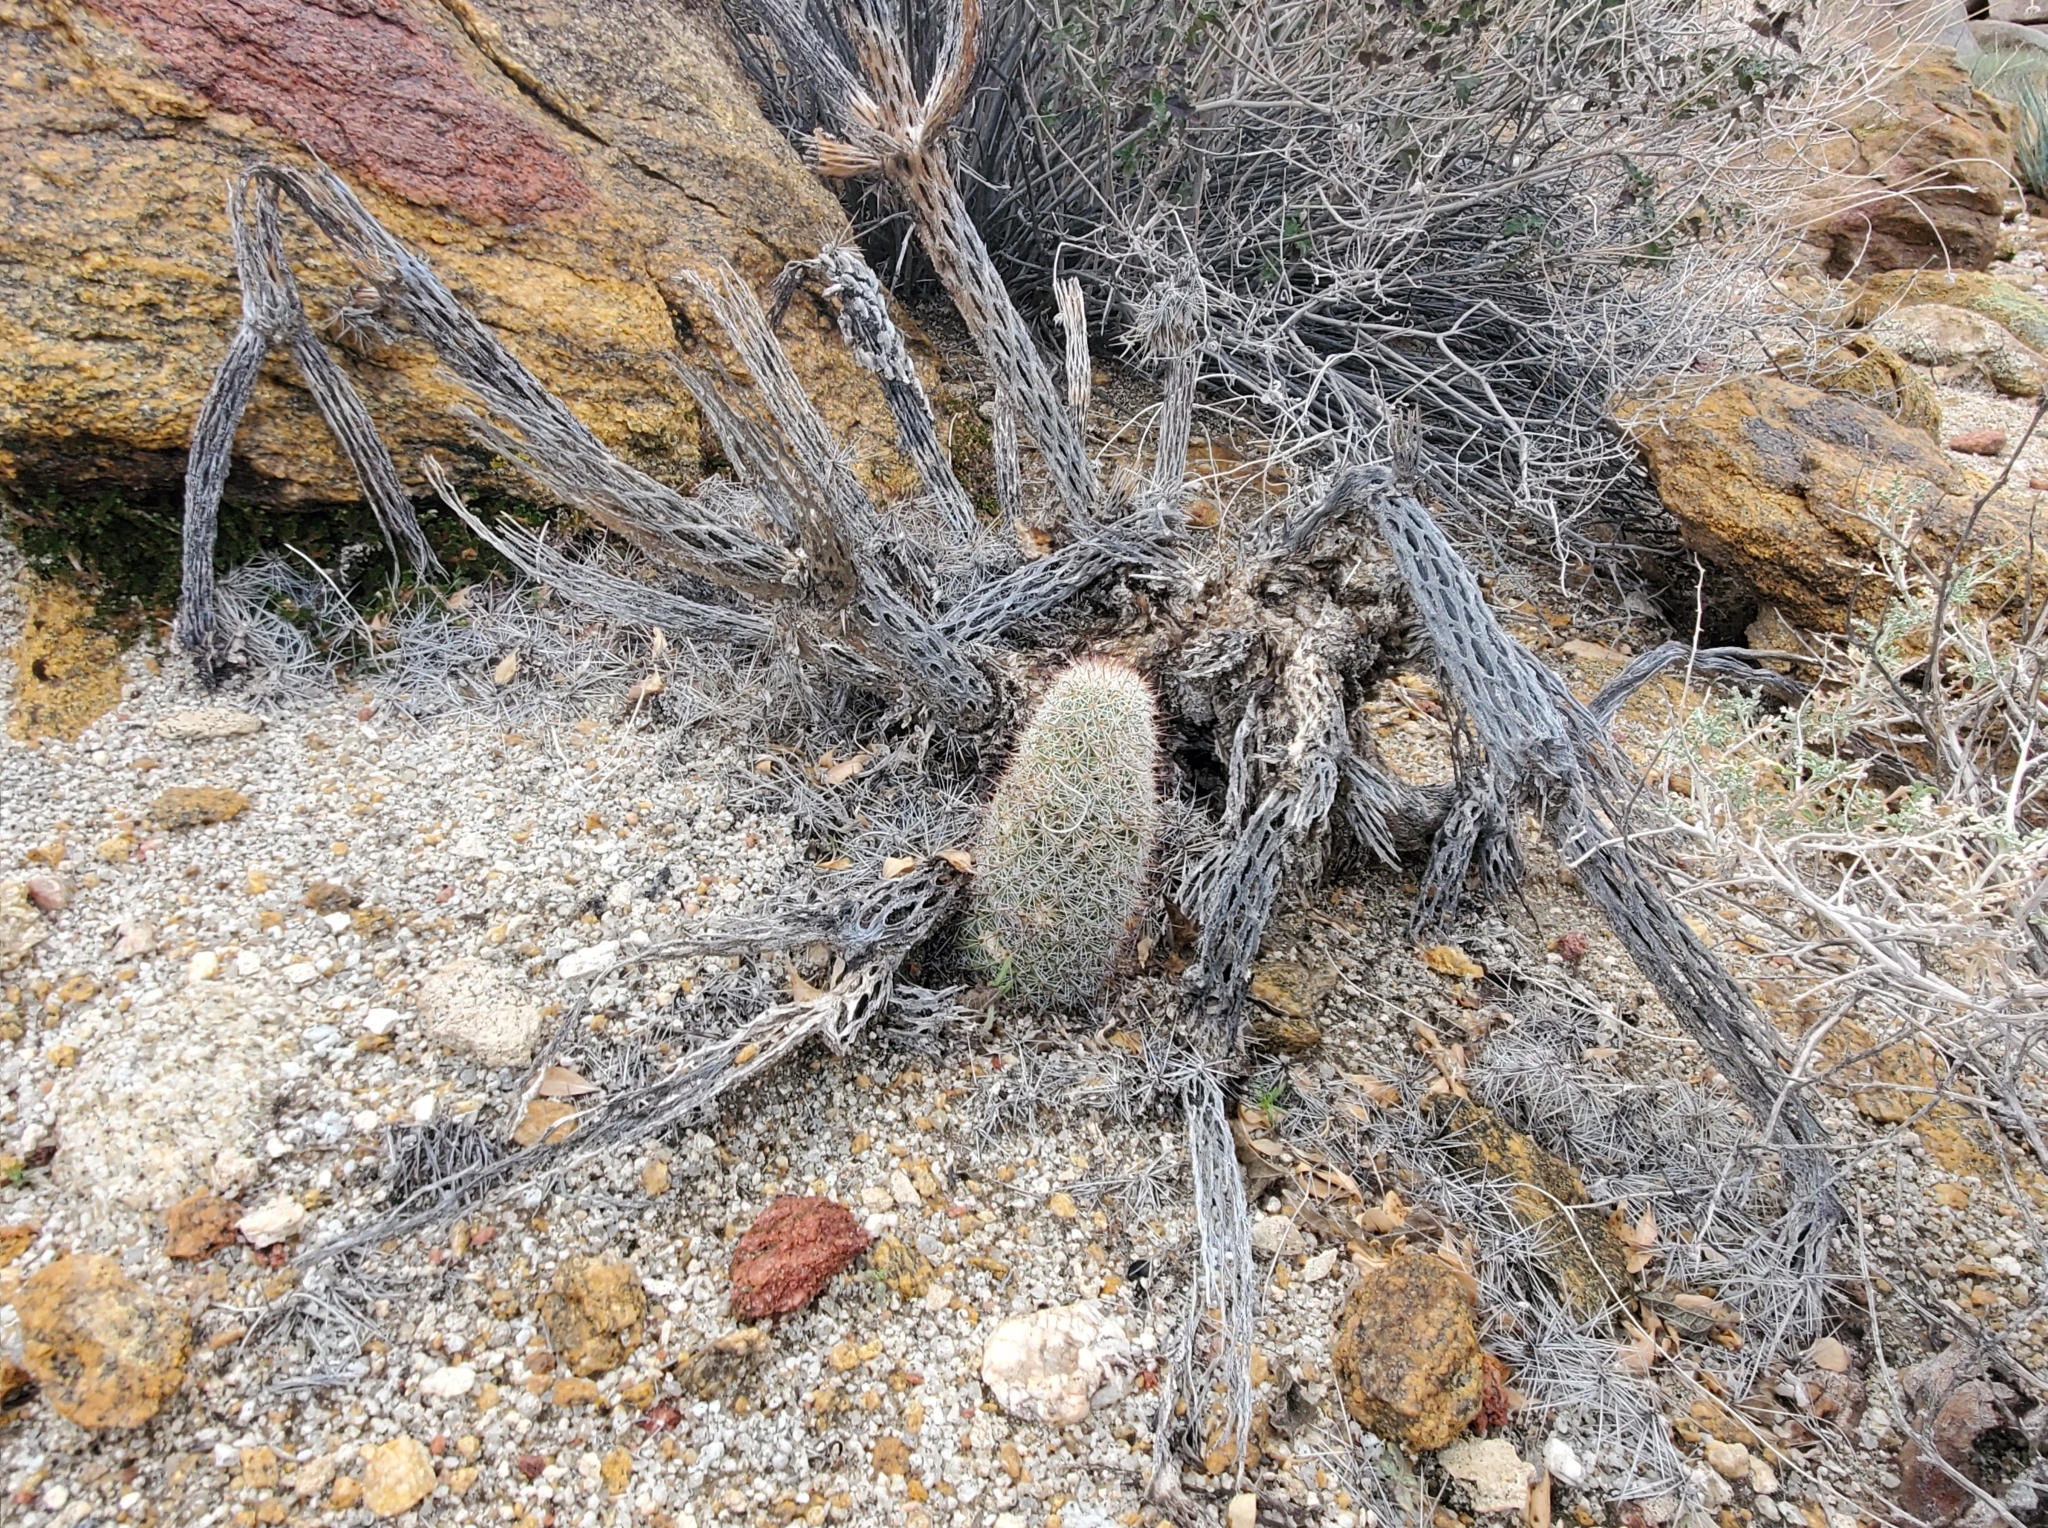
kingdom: Plantae
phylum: Tracheophyta
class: Magnoliopsida
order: Caryophyllales
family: Cactaceae
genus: Cochemiea
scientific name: Cochemiea dioica
